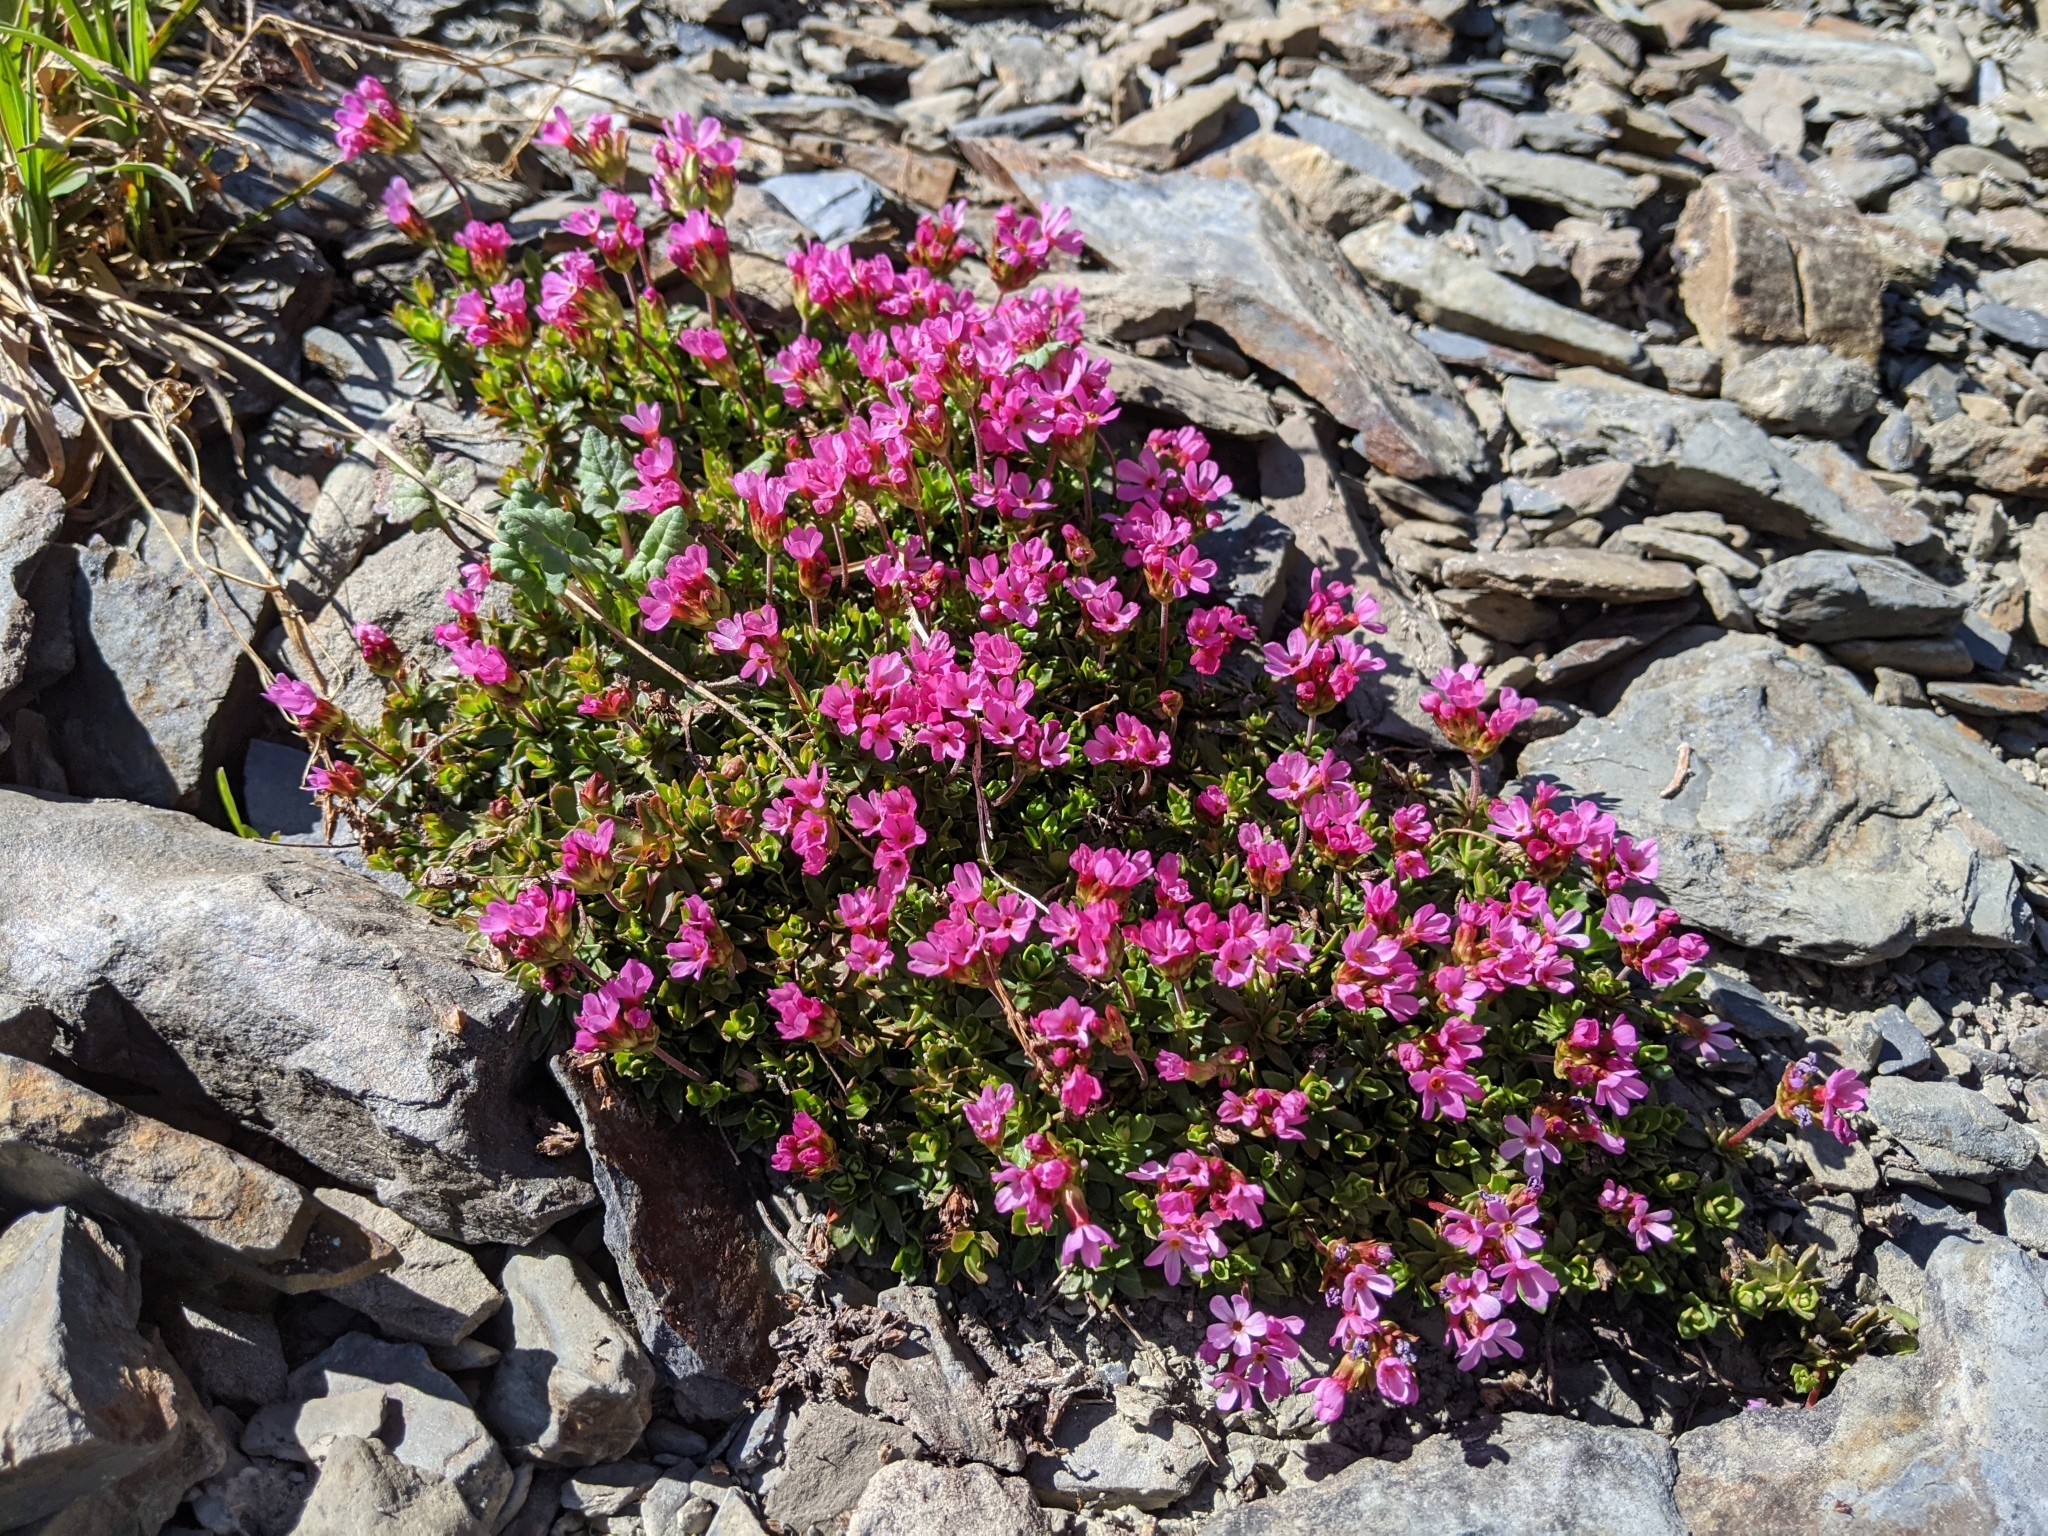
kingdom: Plantae
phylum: Tracheophyta
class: Magnoliopsida
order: Ericales
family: Primulaceae
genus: Androsace
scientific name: Androsace laevigata
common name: Cliff dwarf-primrose
